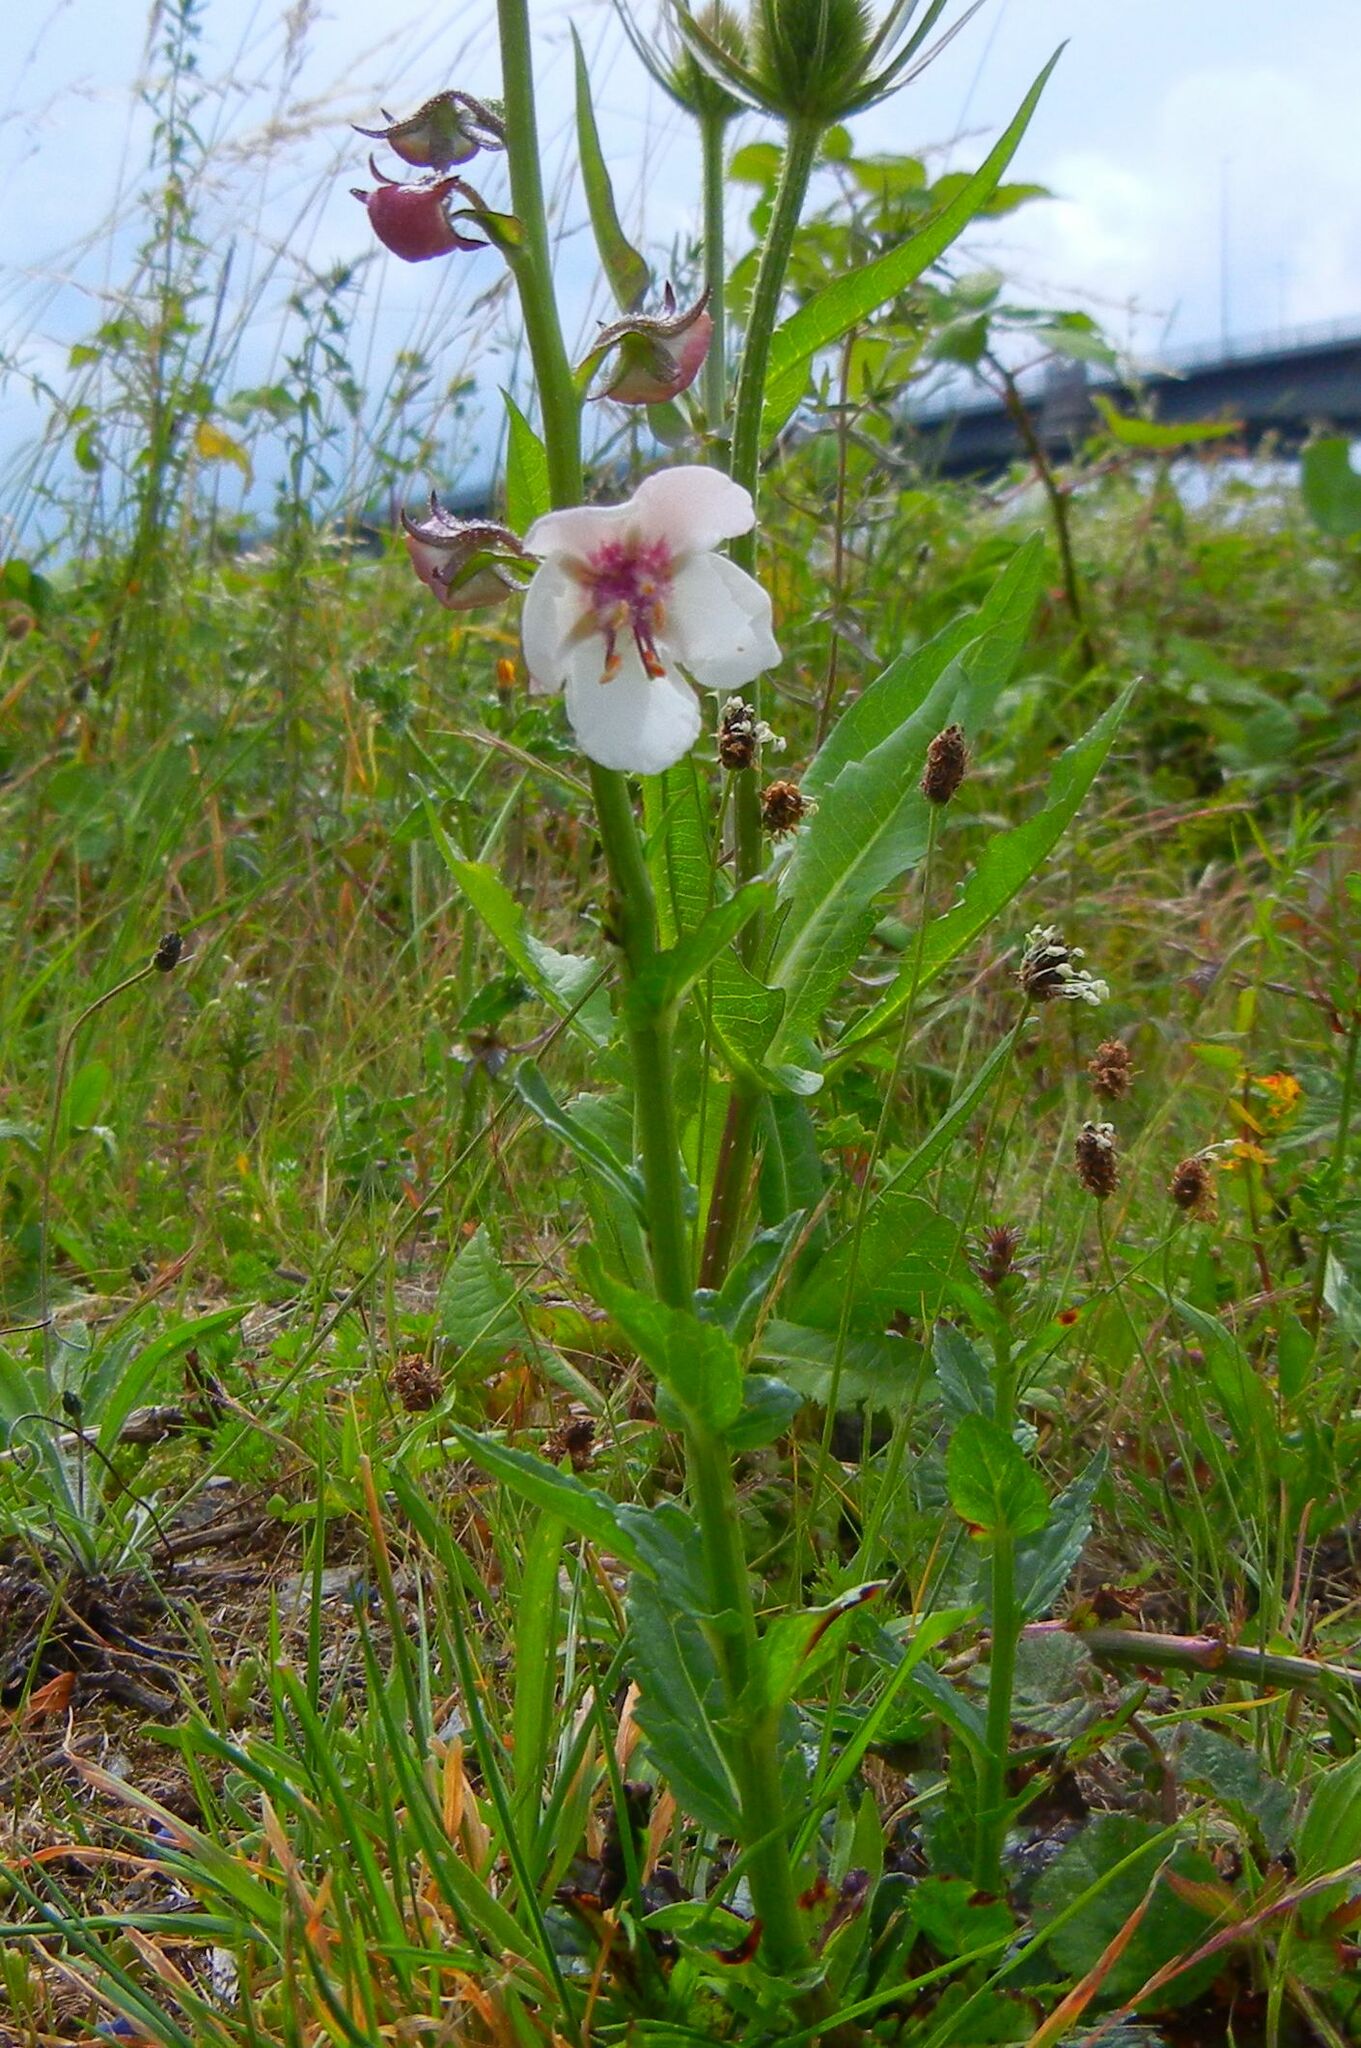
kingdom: Plantae
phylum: Tracheophyta
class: Magnoliopsida
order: Lamiales
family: Scrophulariaceae
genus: Verbascum
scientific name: Verbascum blattaria
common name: Moth mullein
